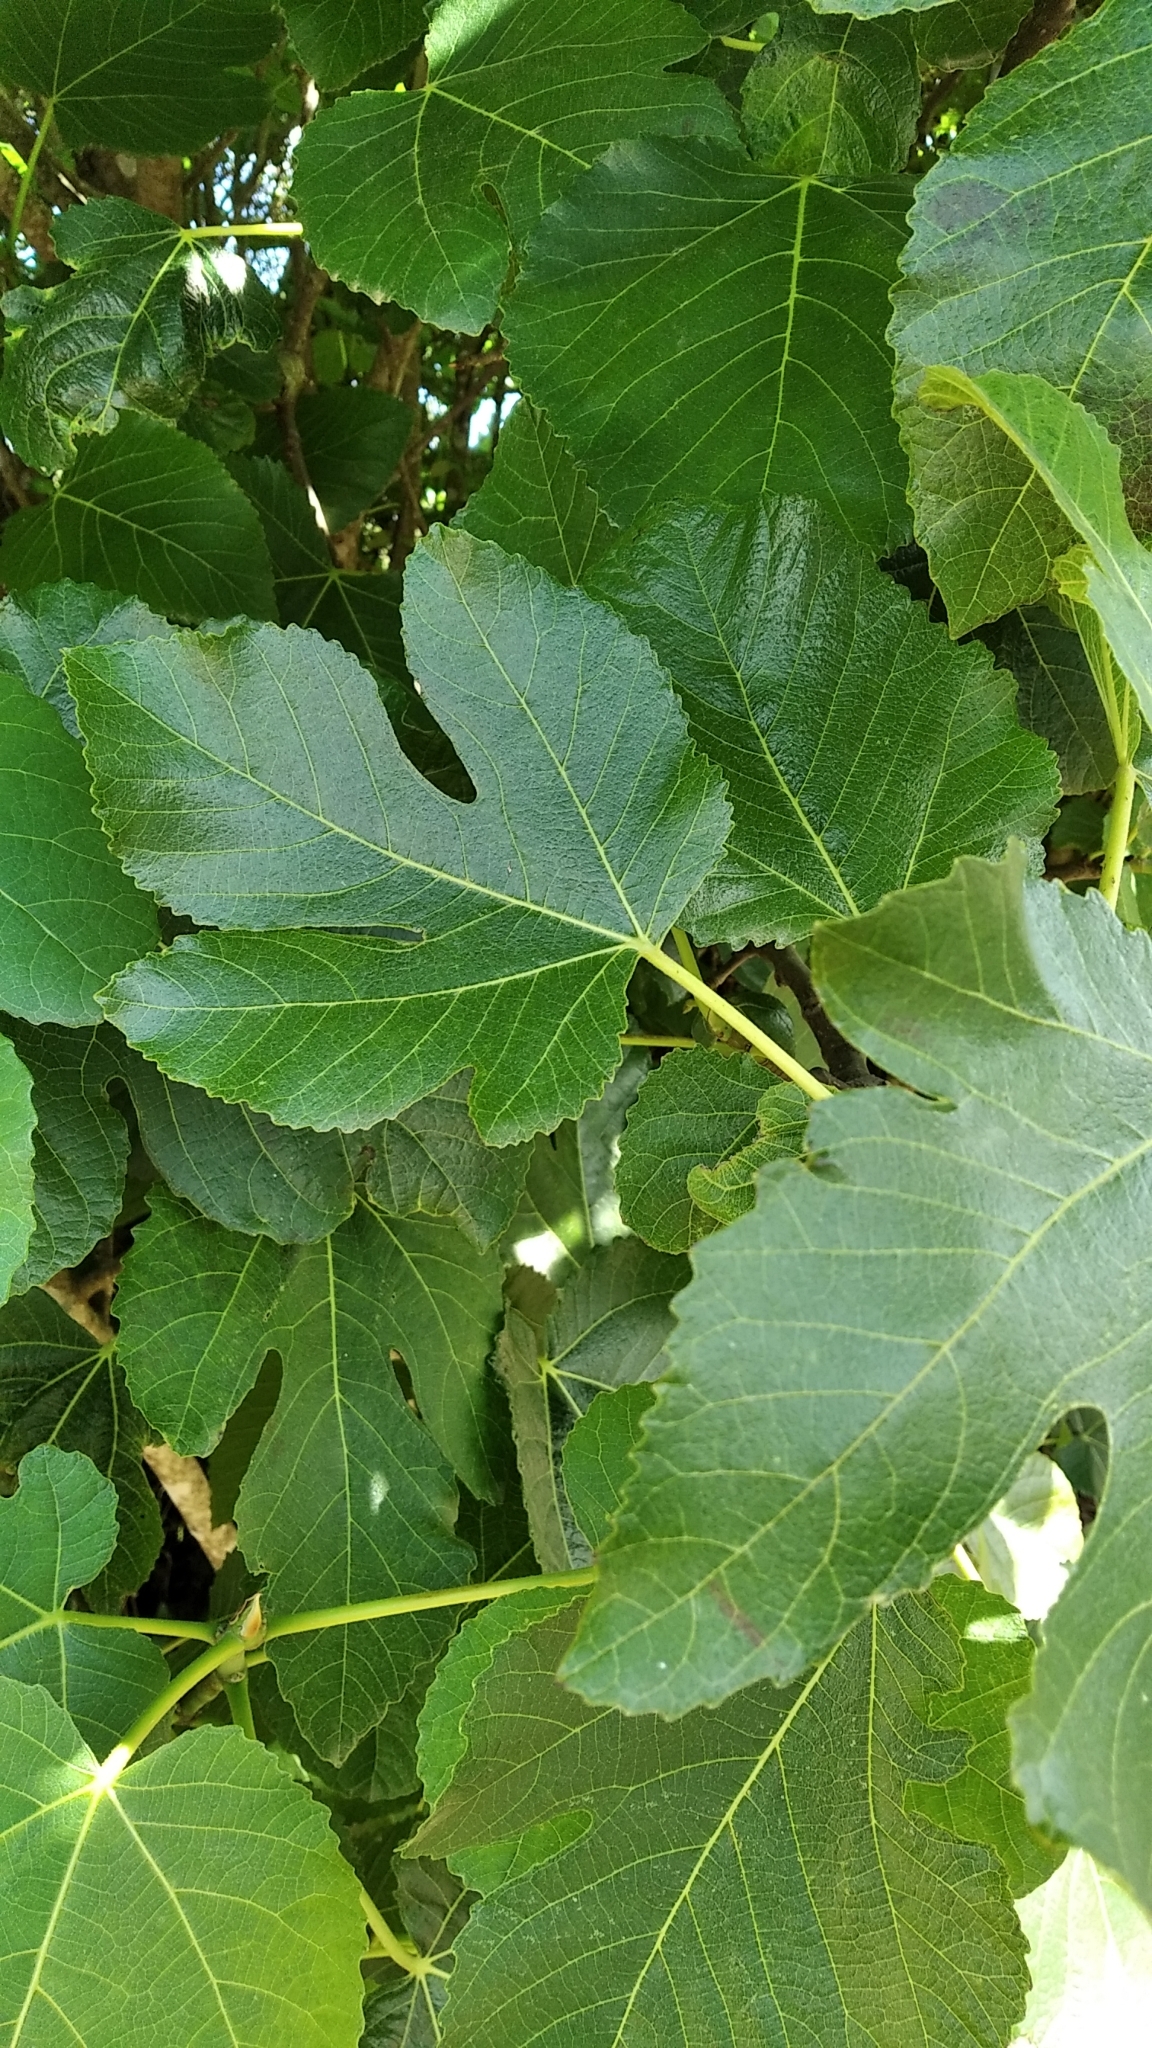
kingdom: Plantae
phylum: Tracheophyta
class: Magnoliopsida
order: Rosales
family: Moraceae
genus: Ficus
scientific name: Ficus carica
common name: Fig
